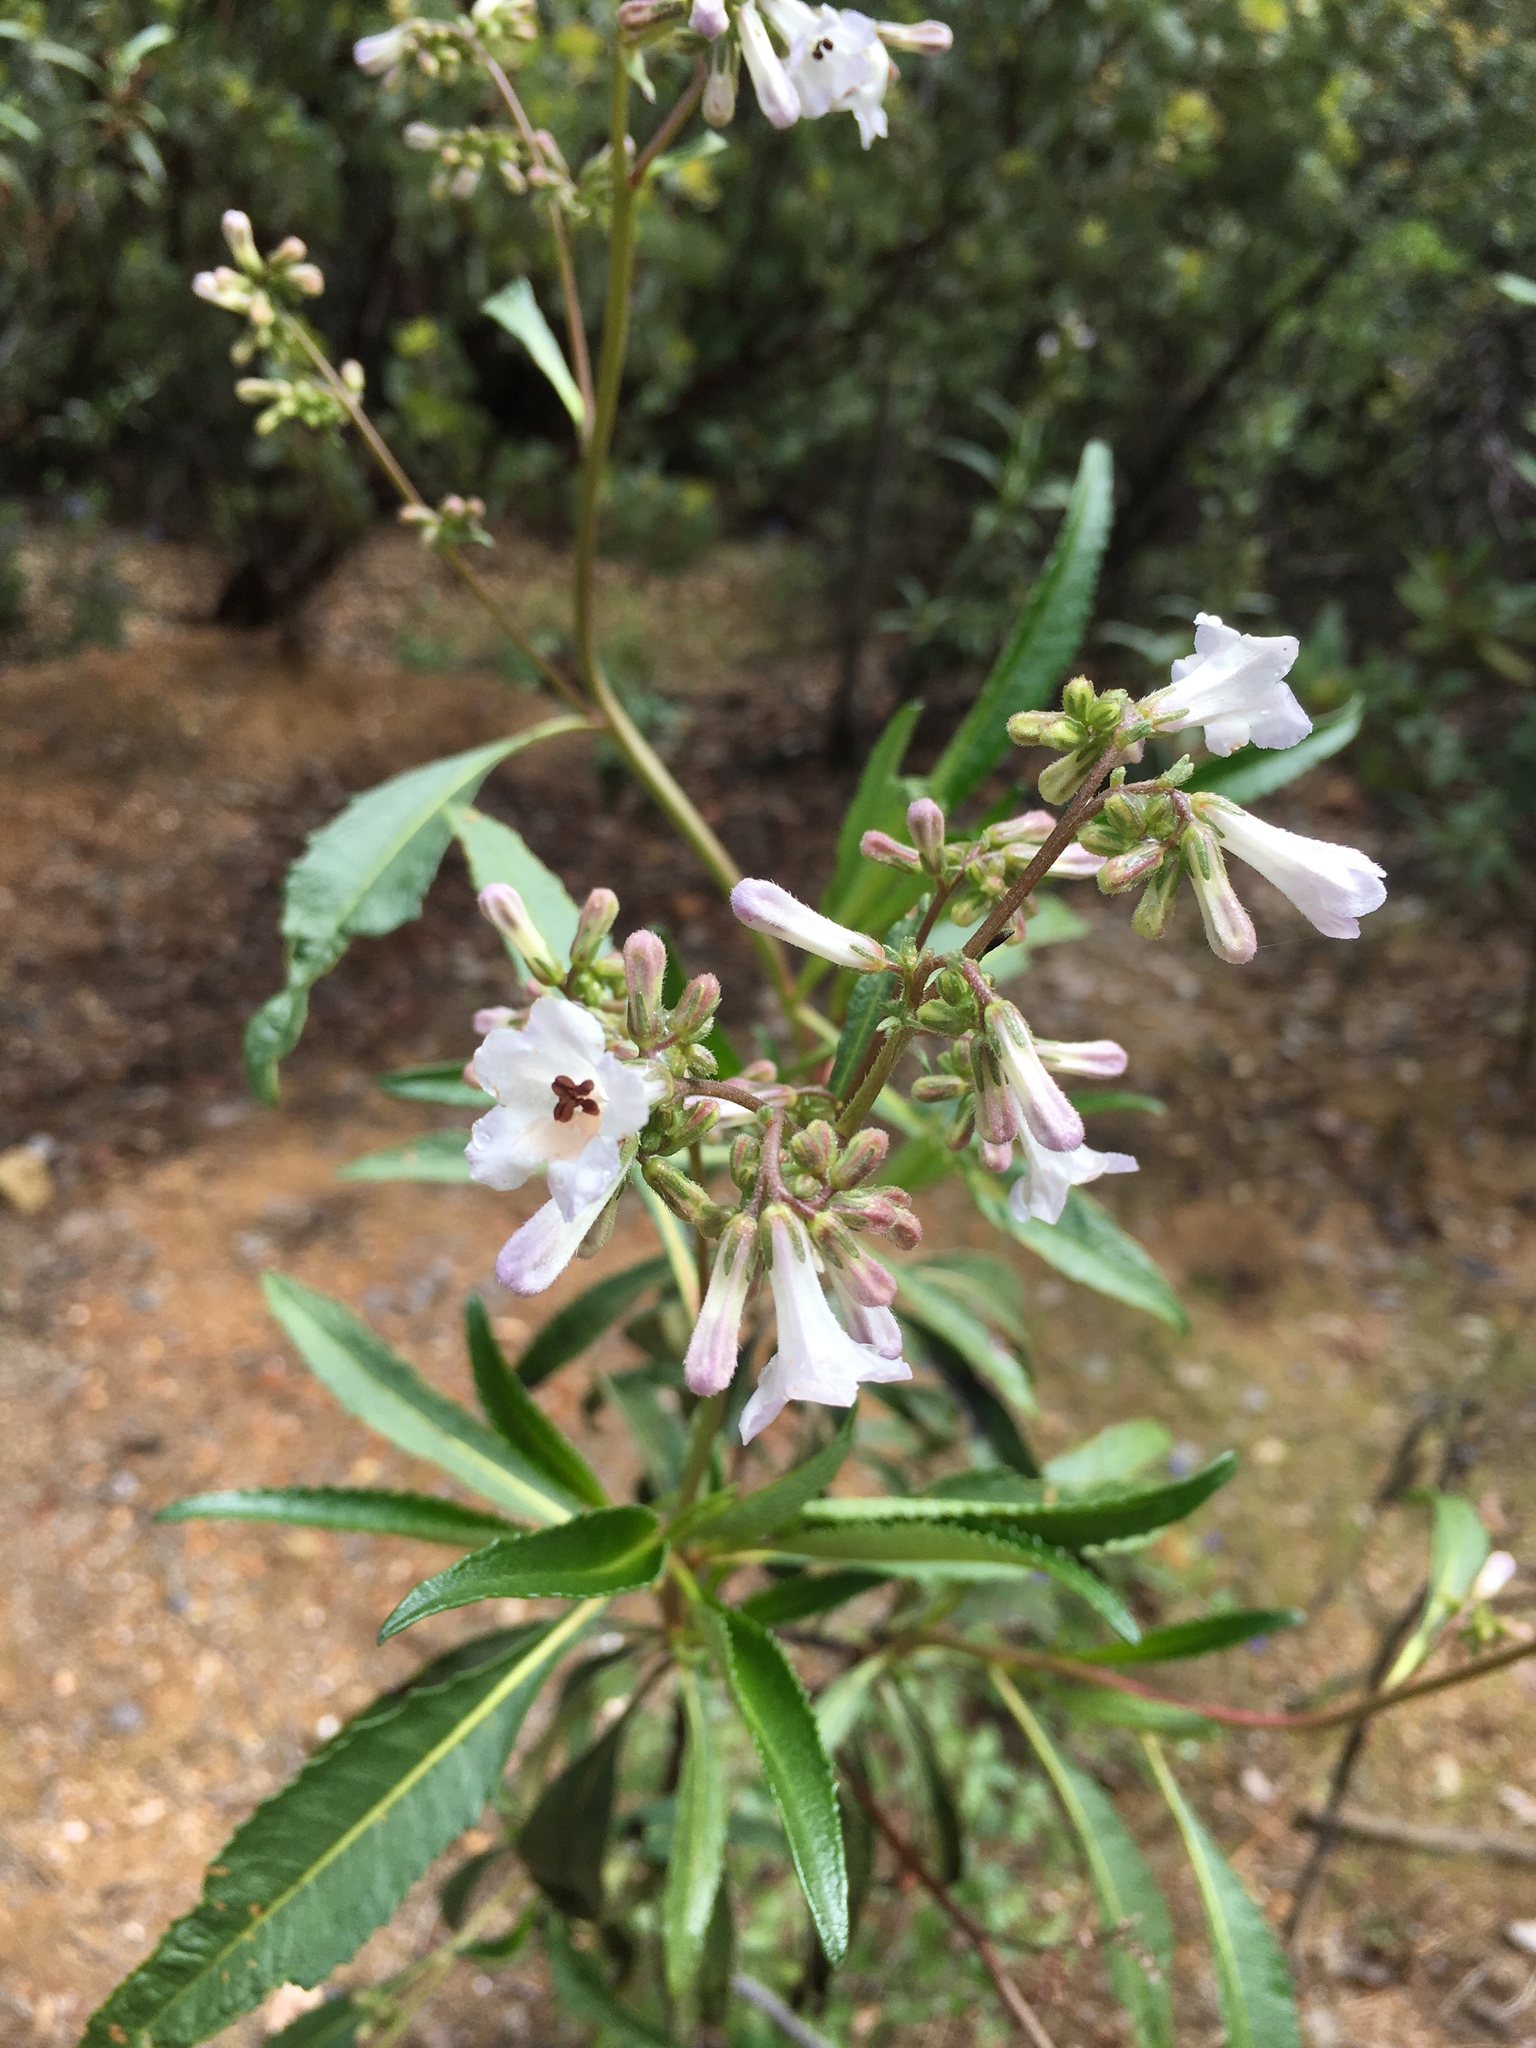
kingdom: Plantae
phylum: Tracheophyta
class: Magnoliopsida
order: Boraginales
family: Namaceae
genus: Eriodictyon
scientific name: Eriodictyon californicum
